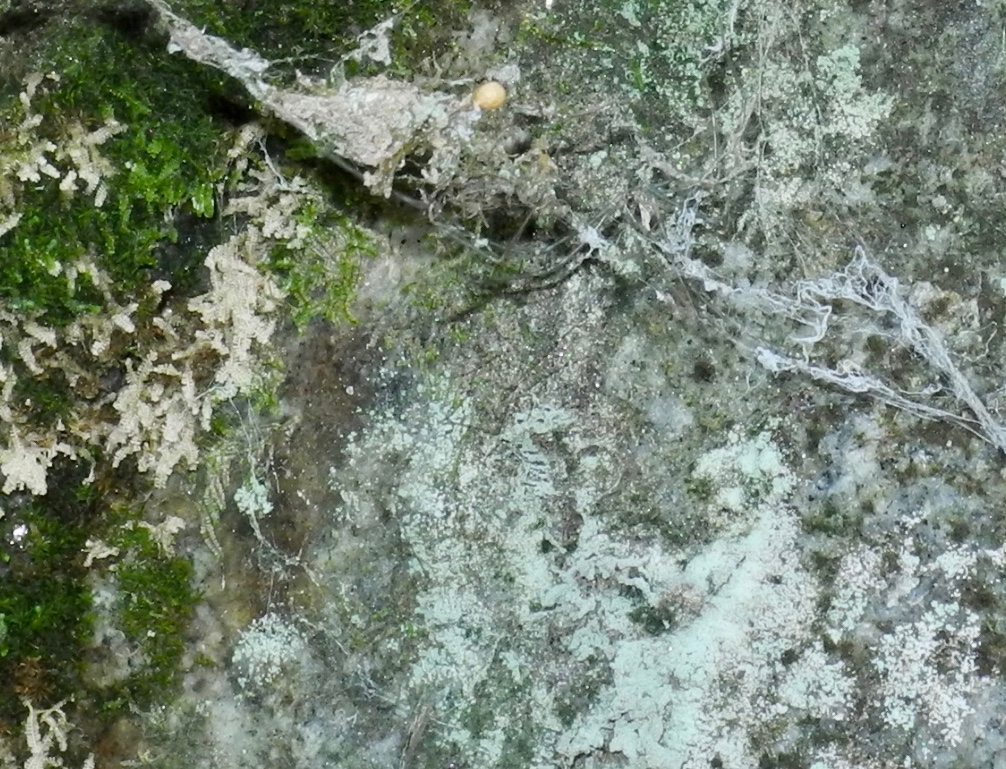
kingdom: Animalia
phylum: Arthropoda
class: Arachnida
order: Araneae
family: Hypochilidae
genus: Hypochilus
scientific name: Hypochilus pococki
